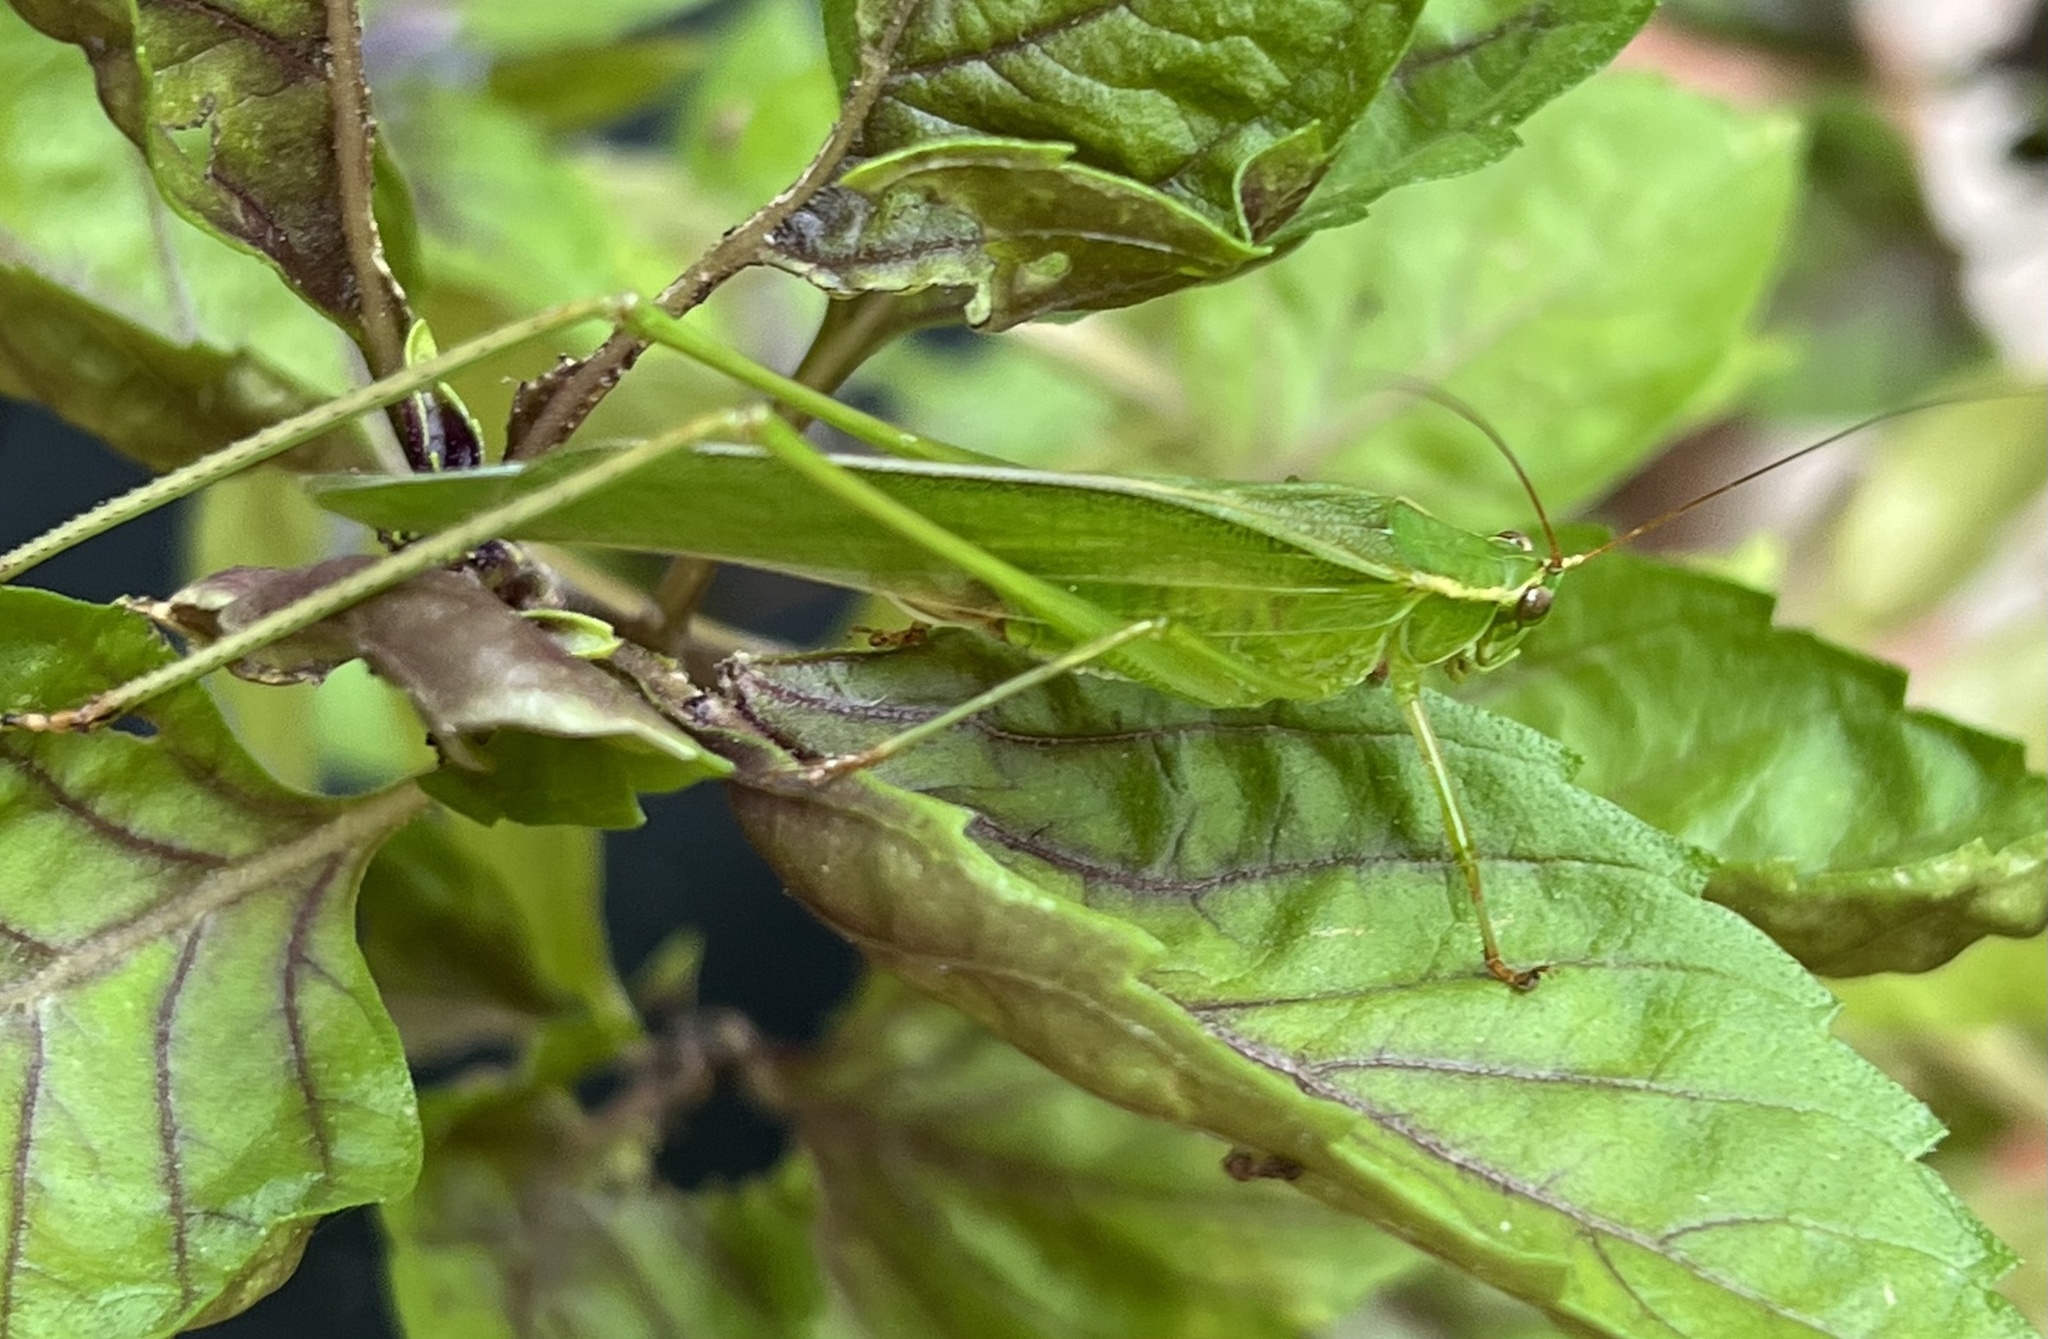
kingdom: Animalia
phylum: Arthropoda
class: Insecta
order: Orthoptera
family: Tettigoniidae
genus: Scudderia
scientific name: Scudderia furcata
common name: Fork-tailed bush katydid
